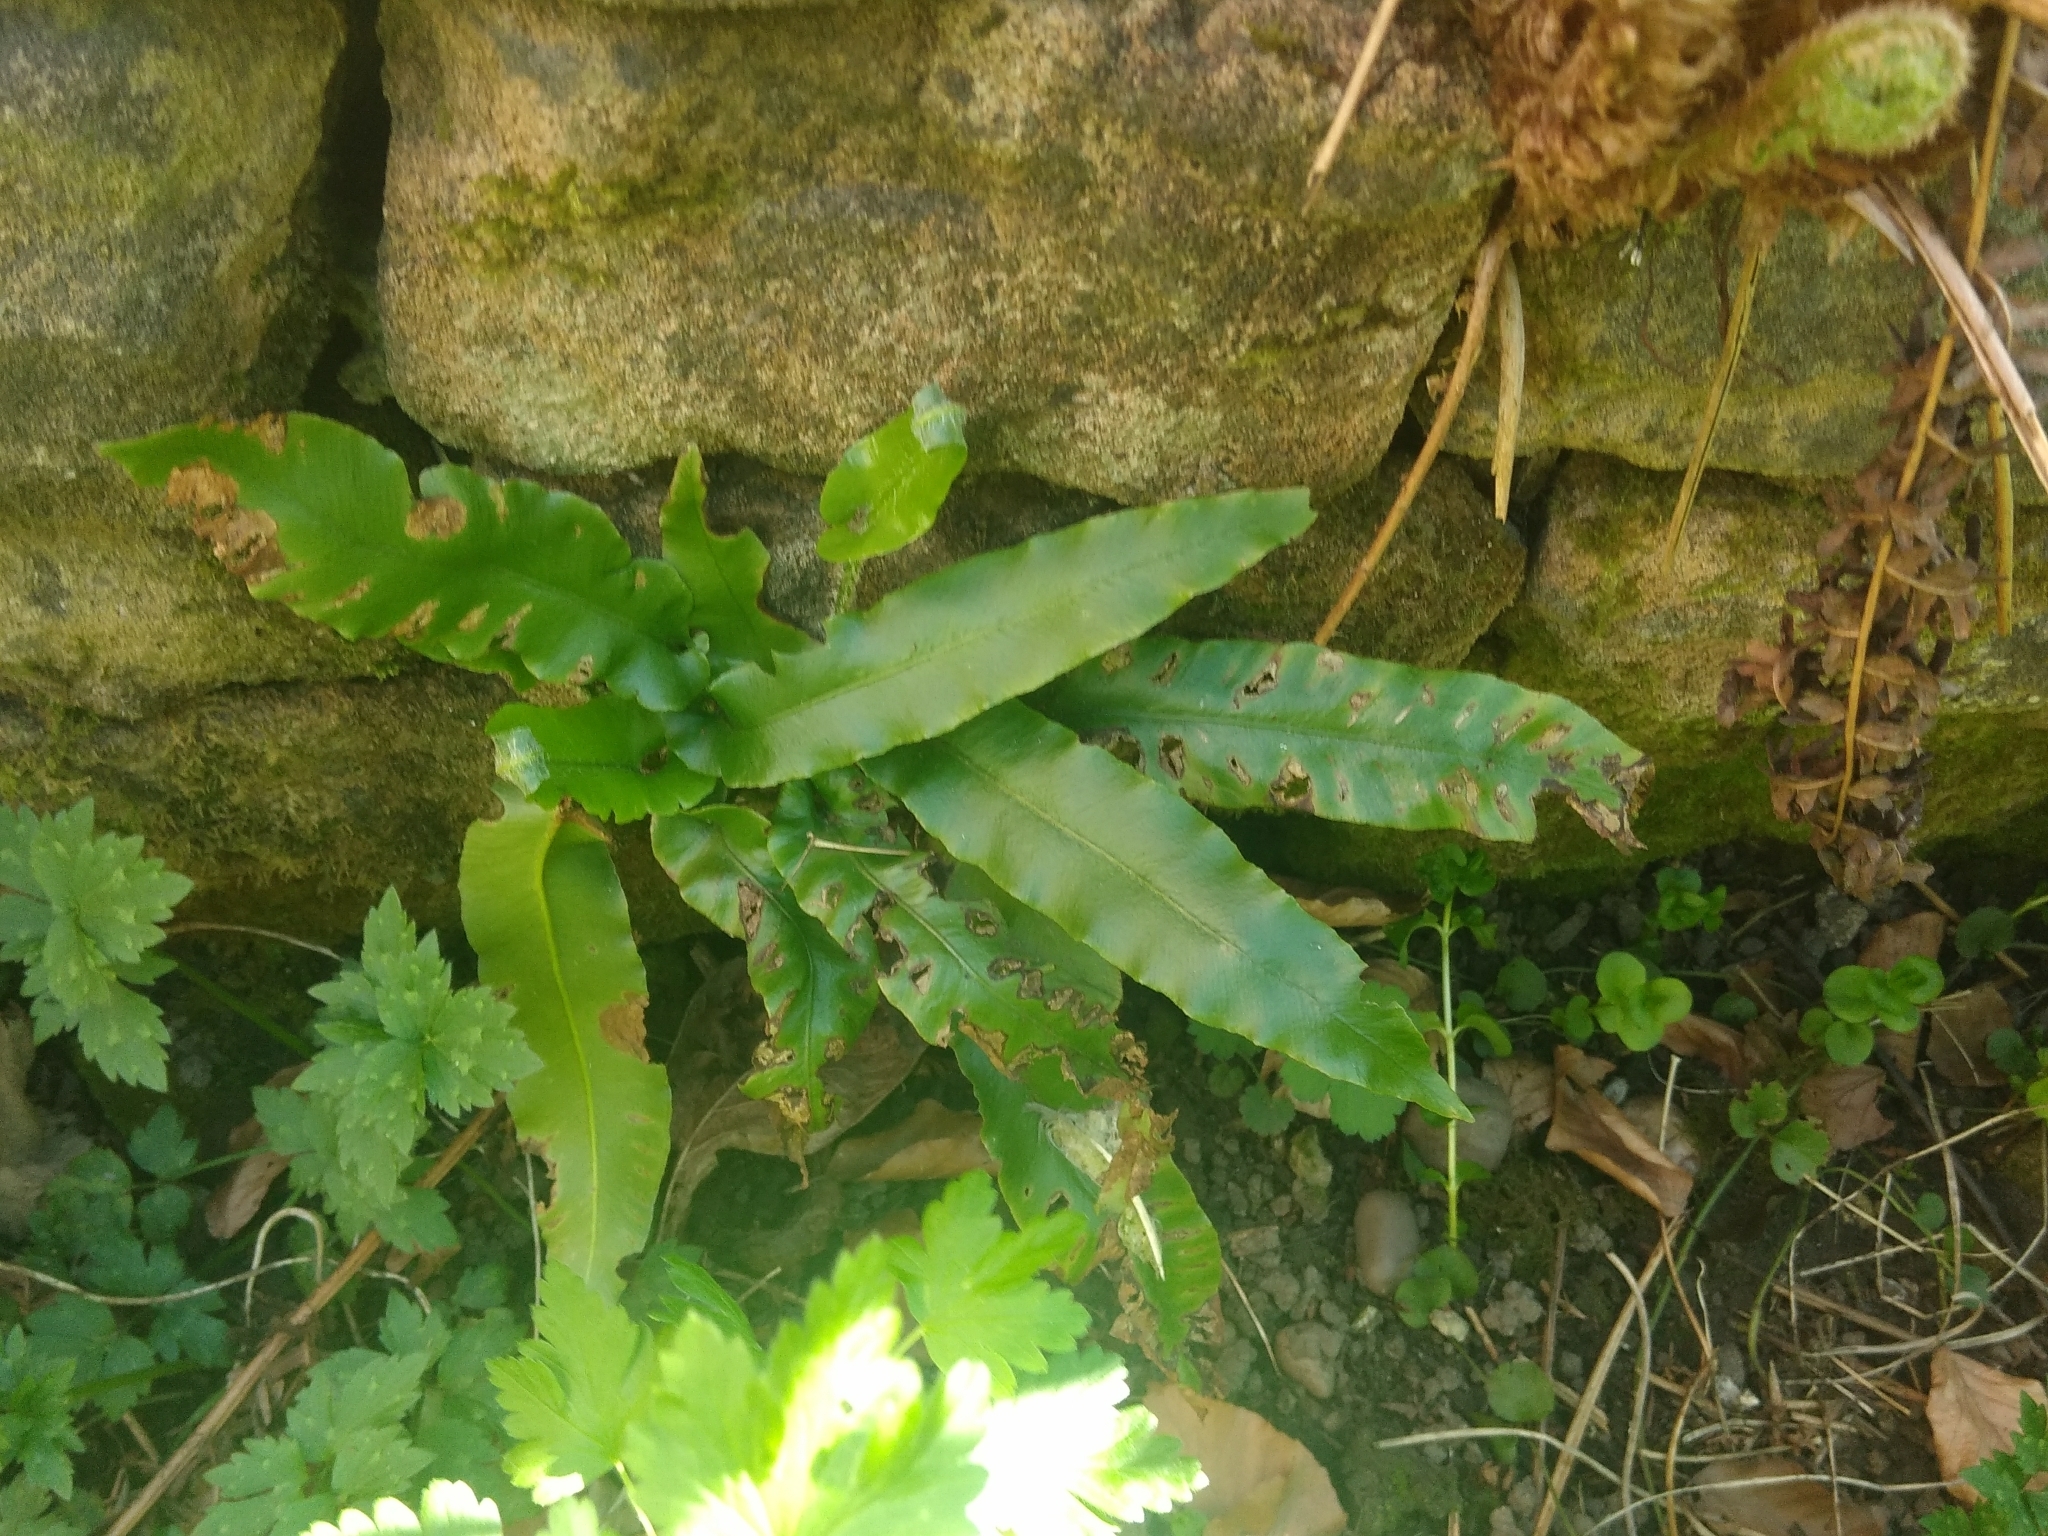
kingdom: Plantae
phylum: Tracheophyta
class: Polypodiopsida
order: Polypodiales
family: Aspleniaceae
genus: Asplenium
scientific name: Asplenium scolopendrium
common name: Hart's-tongue fern
